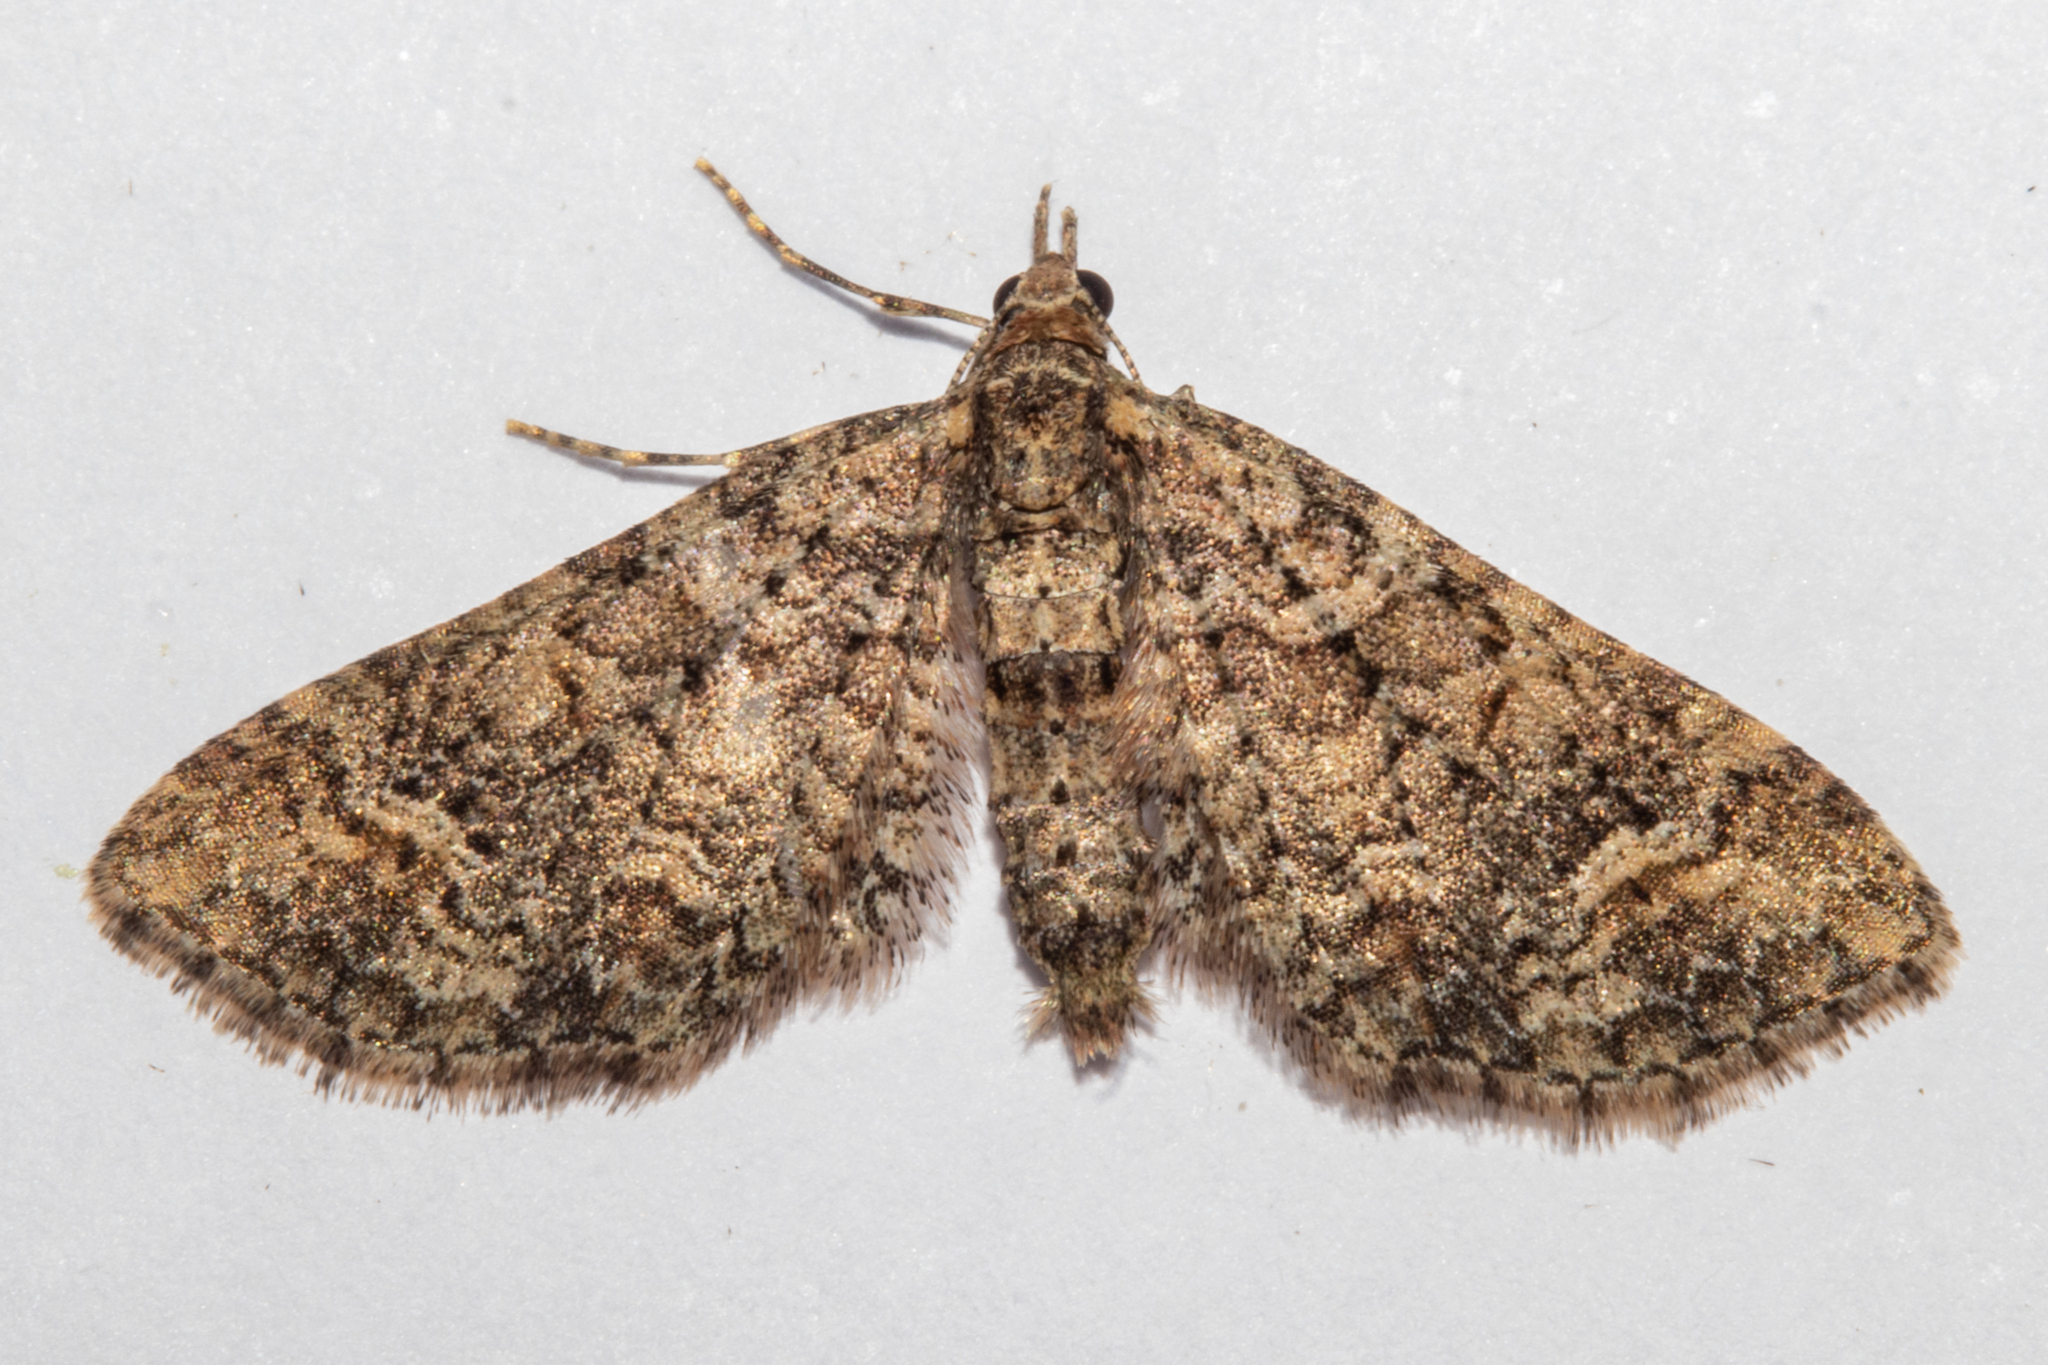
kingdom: Animalia
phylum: Arthropoda
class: Insecta
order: Lepidoptera
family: Geometridae
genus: Idaea
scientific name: Idaea mutanda
